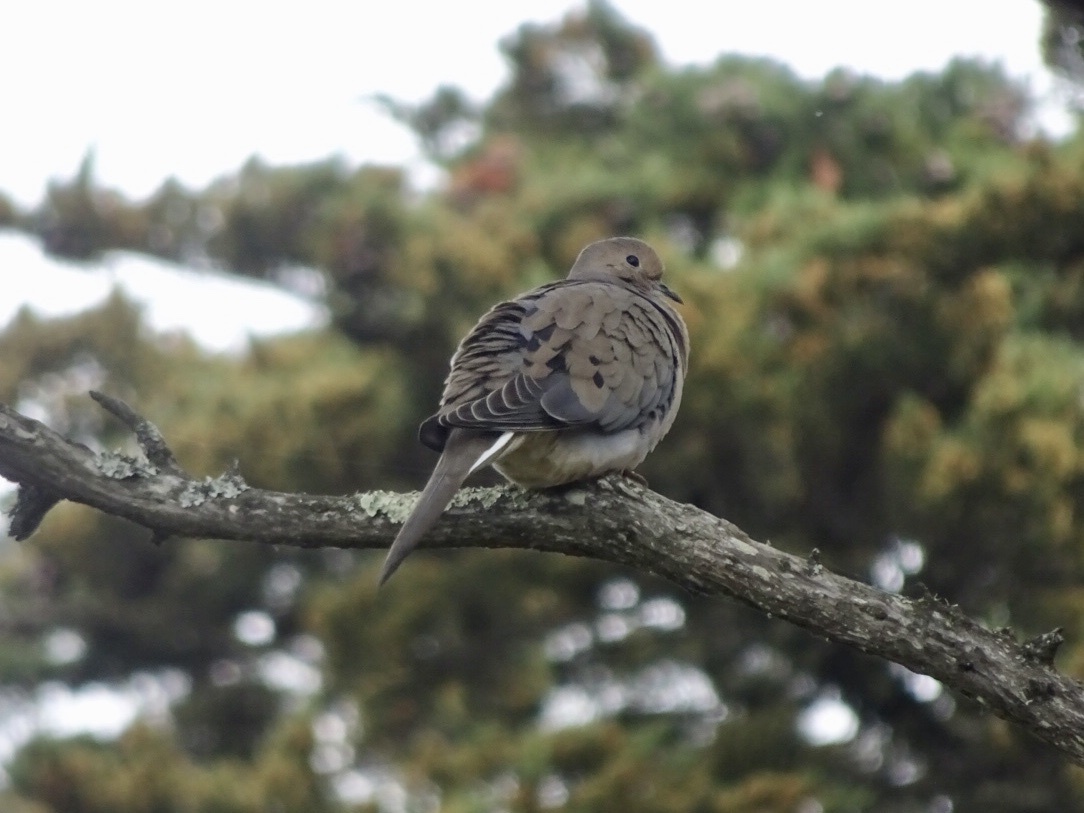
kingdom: Animalia
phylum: Chordata
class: Aves
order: Columbiformes
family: Columbidae
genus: Zenaida
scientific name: Zenaida macroura
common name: Mourning dove
